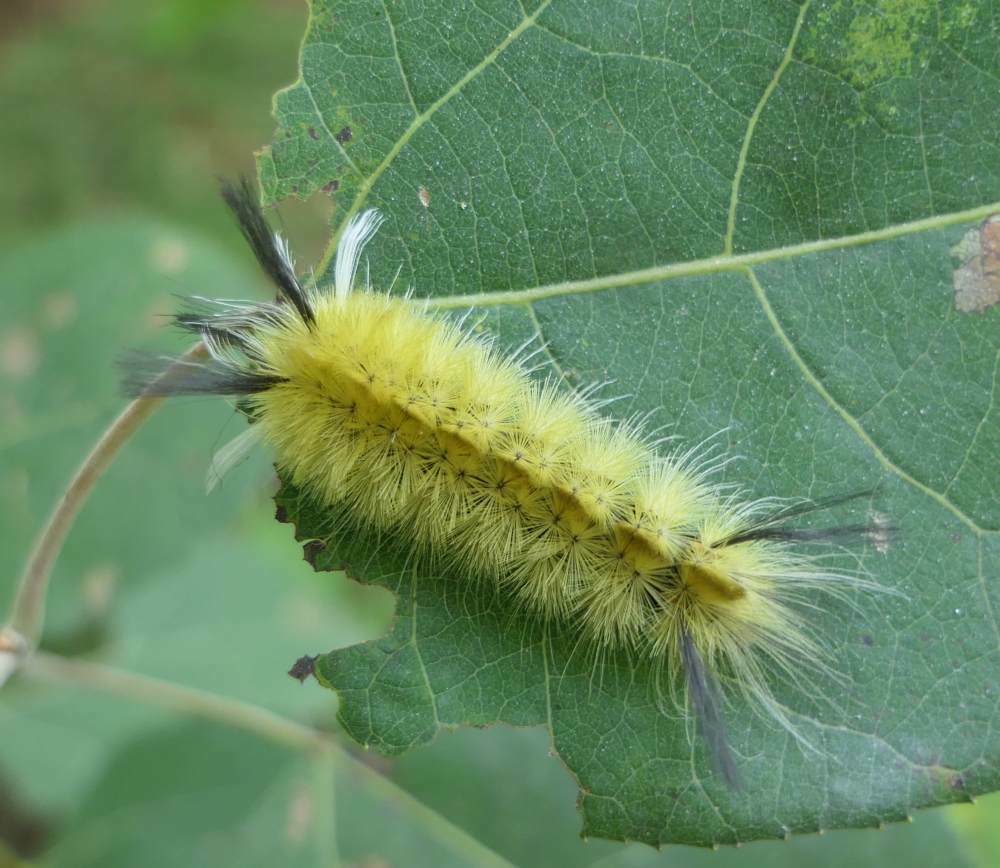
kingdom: Animalia
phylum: Arthropoda
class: Insecta
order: Lepidoptera
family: Erebidae
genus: Halysidota
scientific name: Halysidota tessellaris
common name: Banded tussock moth
